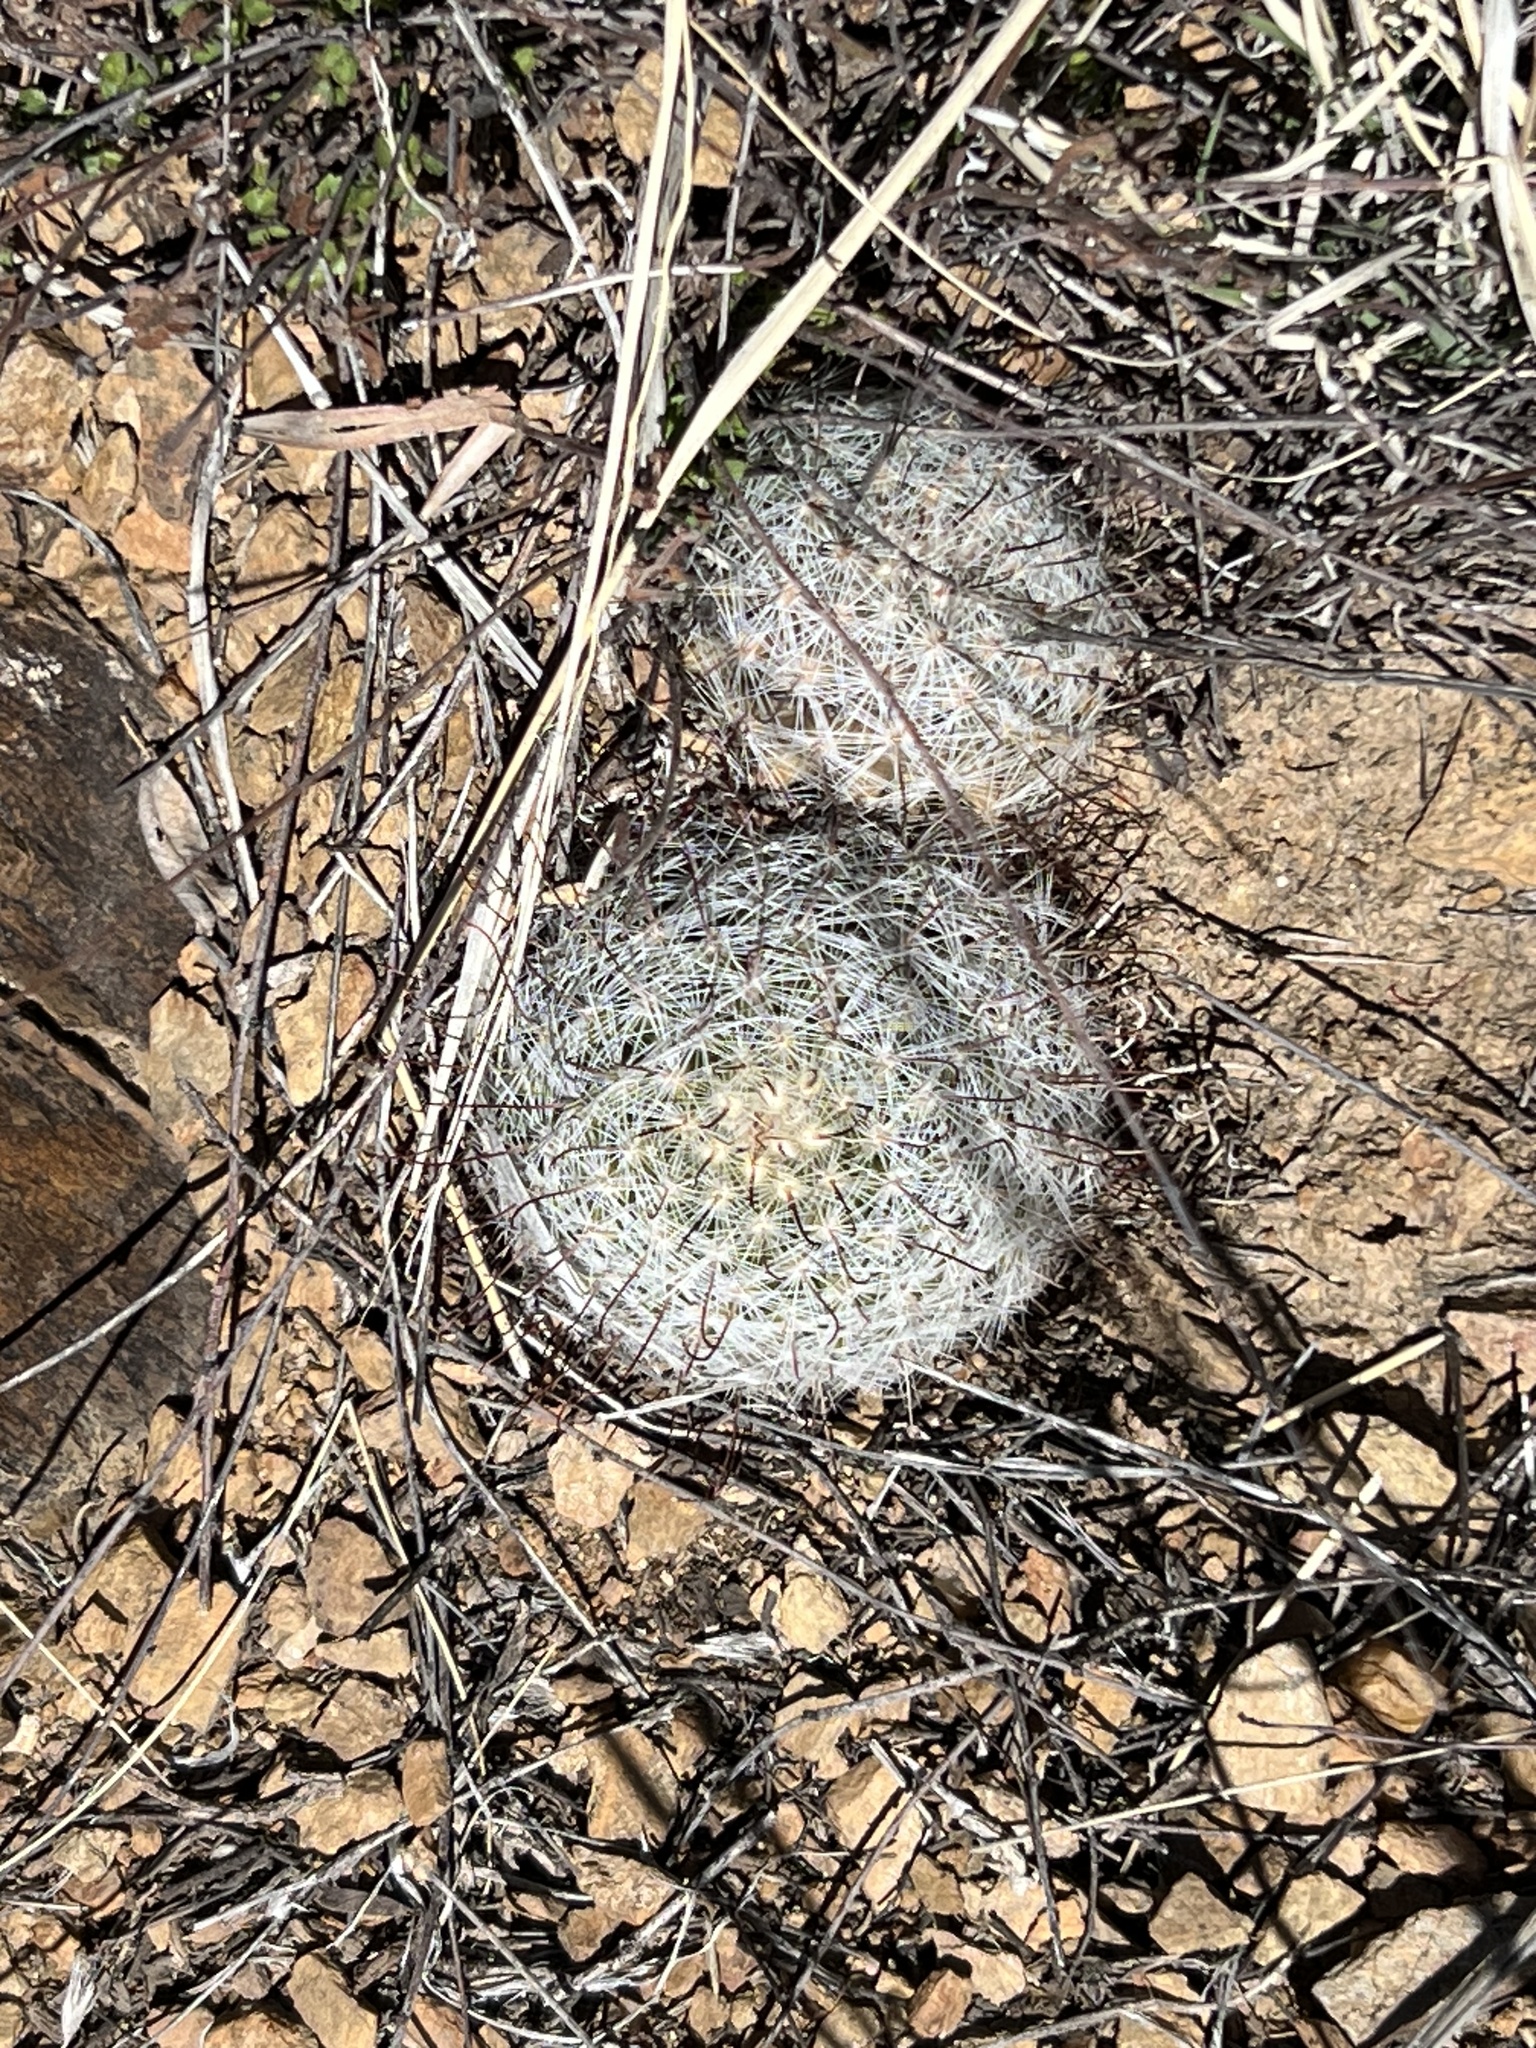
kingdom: Plantae
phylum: Tracheophyta
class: Magnoliopsida
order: Caryophyllales
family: Cactaceae
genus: Cochemiea
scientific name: Cochemiea grahamii
